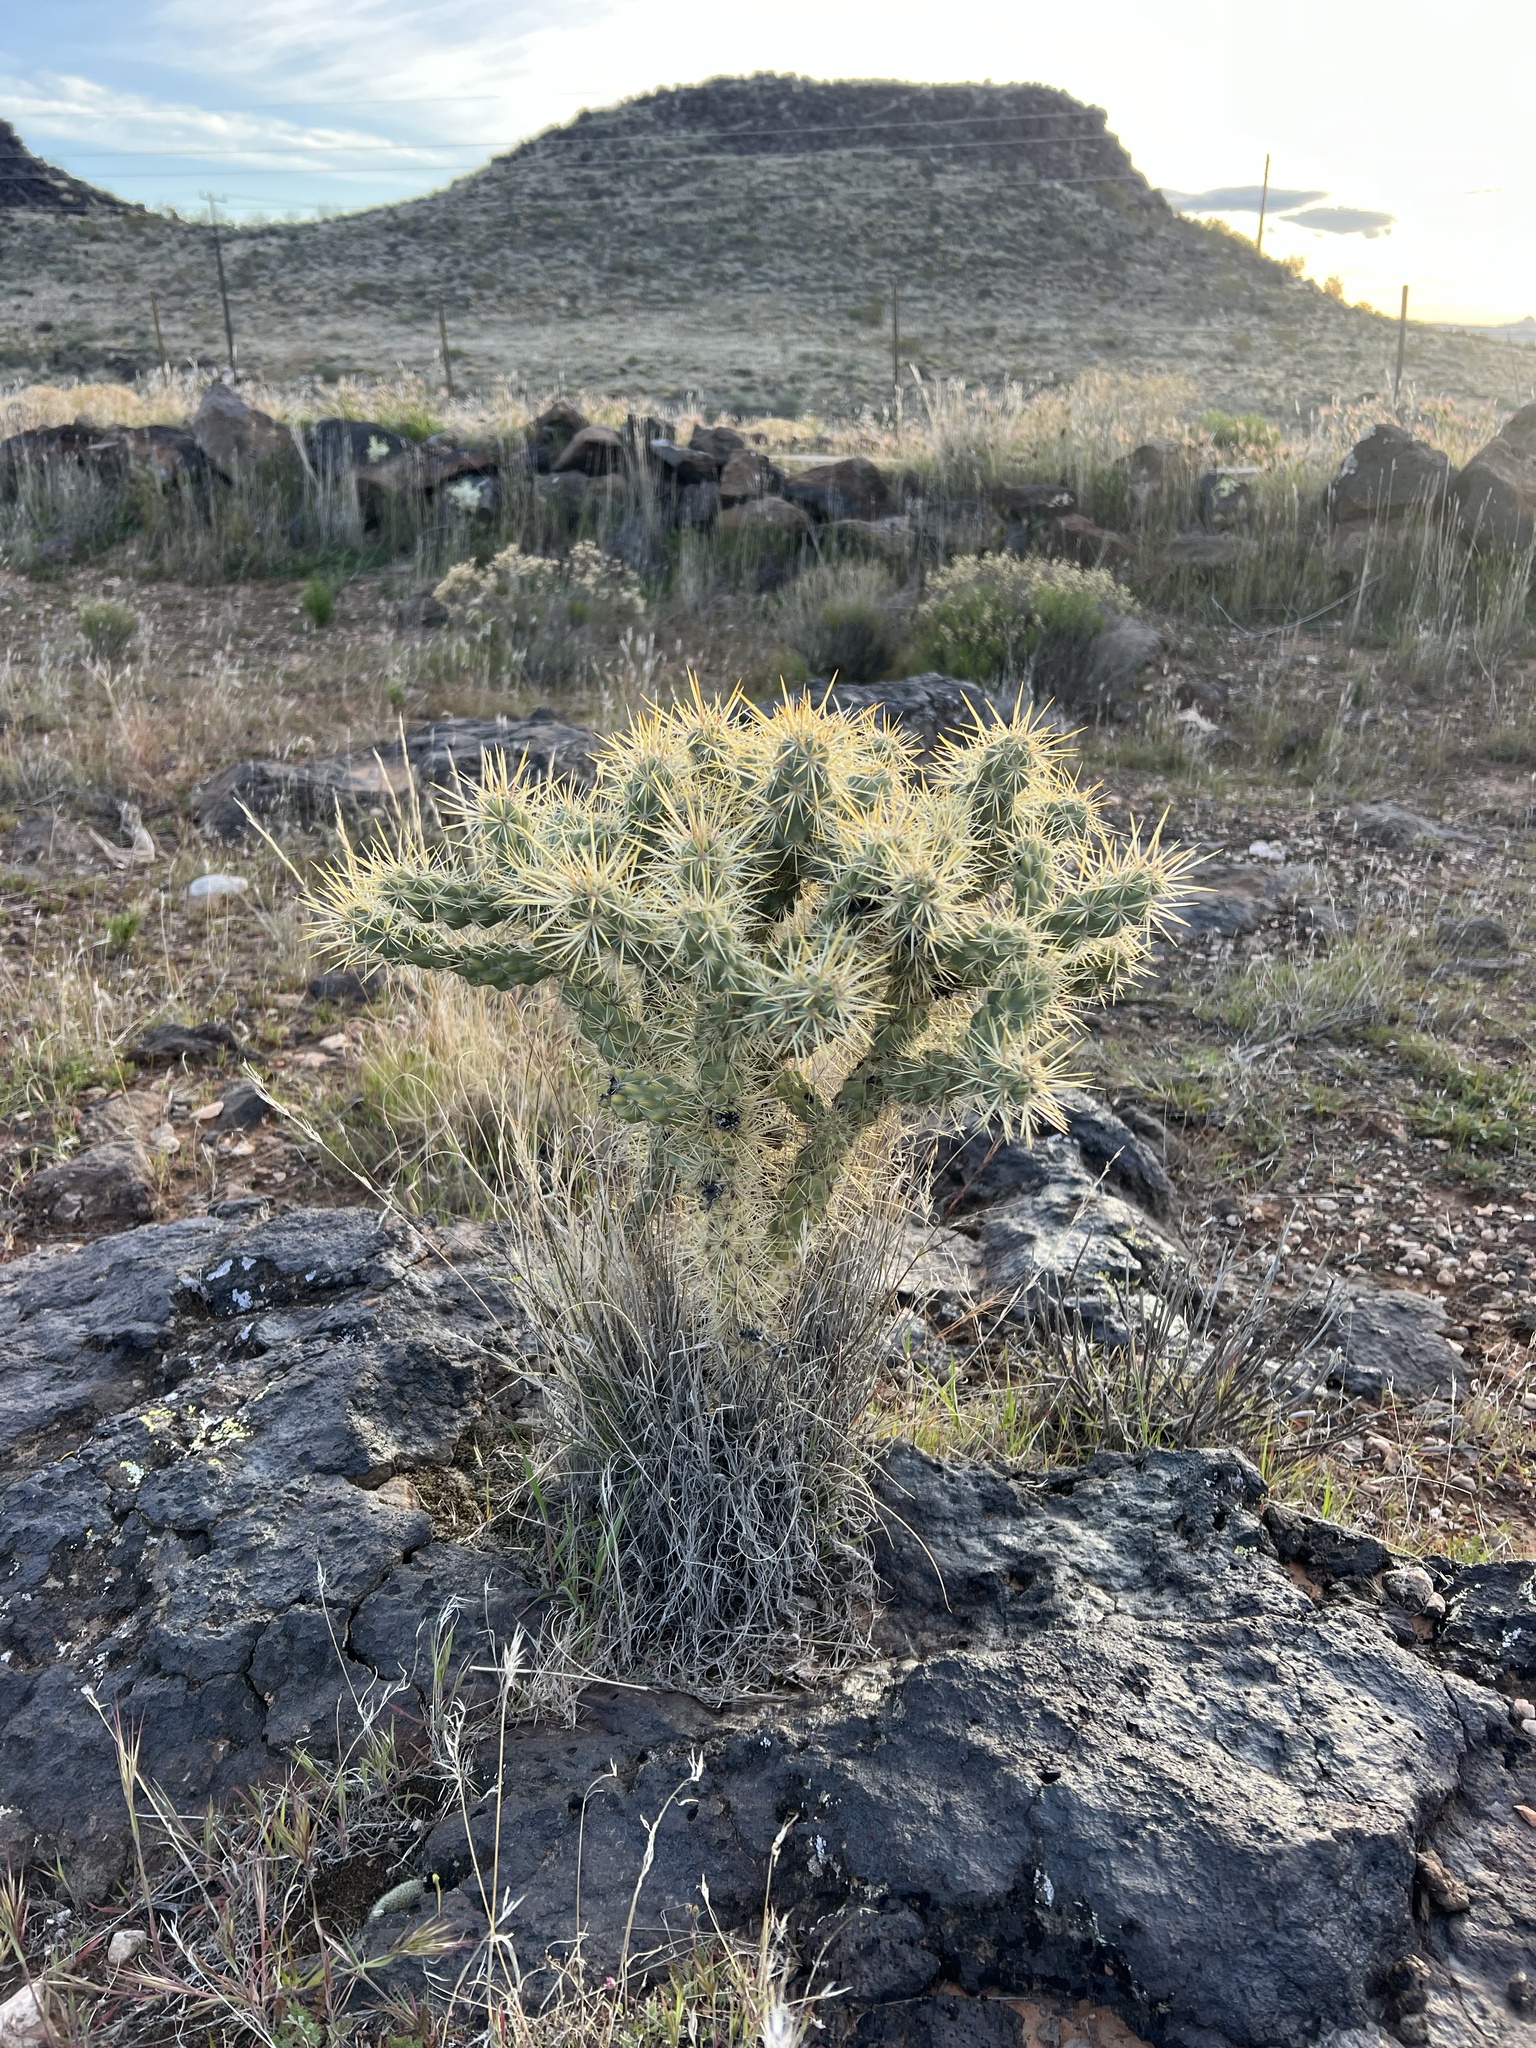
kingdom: Plantae
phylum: Tracheophyta
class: Magnoliopsida
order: Caryophyllales
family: Cactaceae
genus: Cylindropuntia
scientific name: Cylindropuntia echinocarpa
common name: Ground cholla
